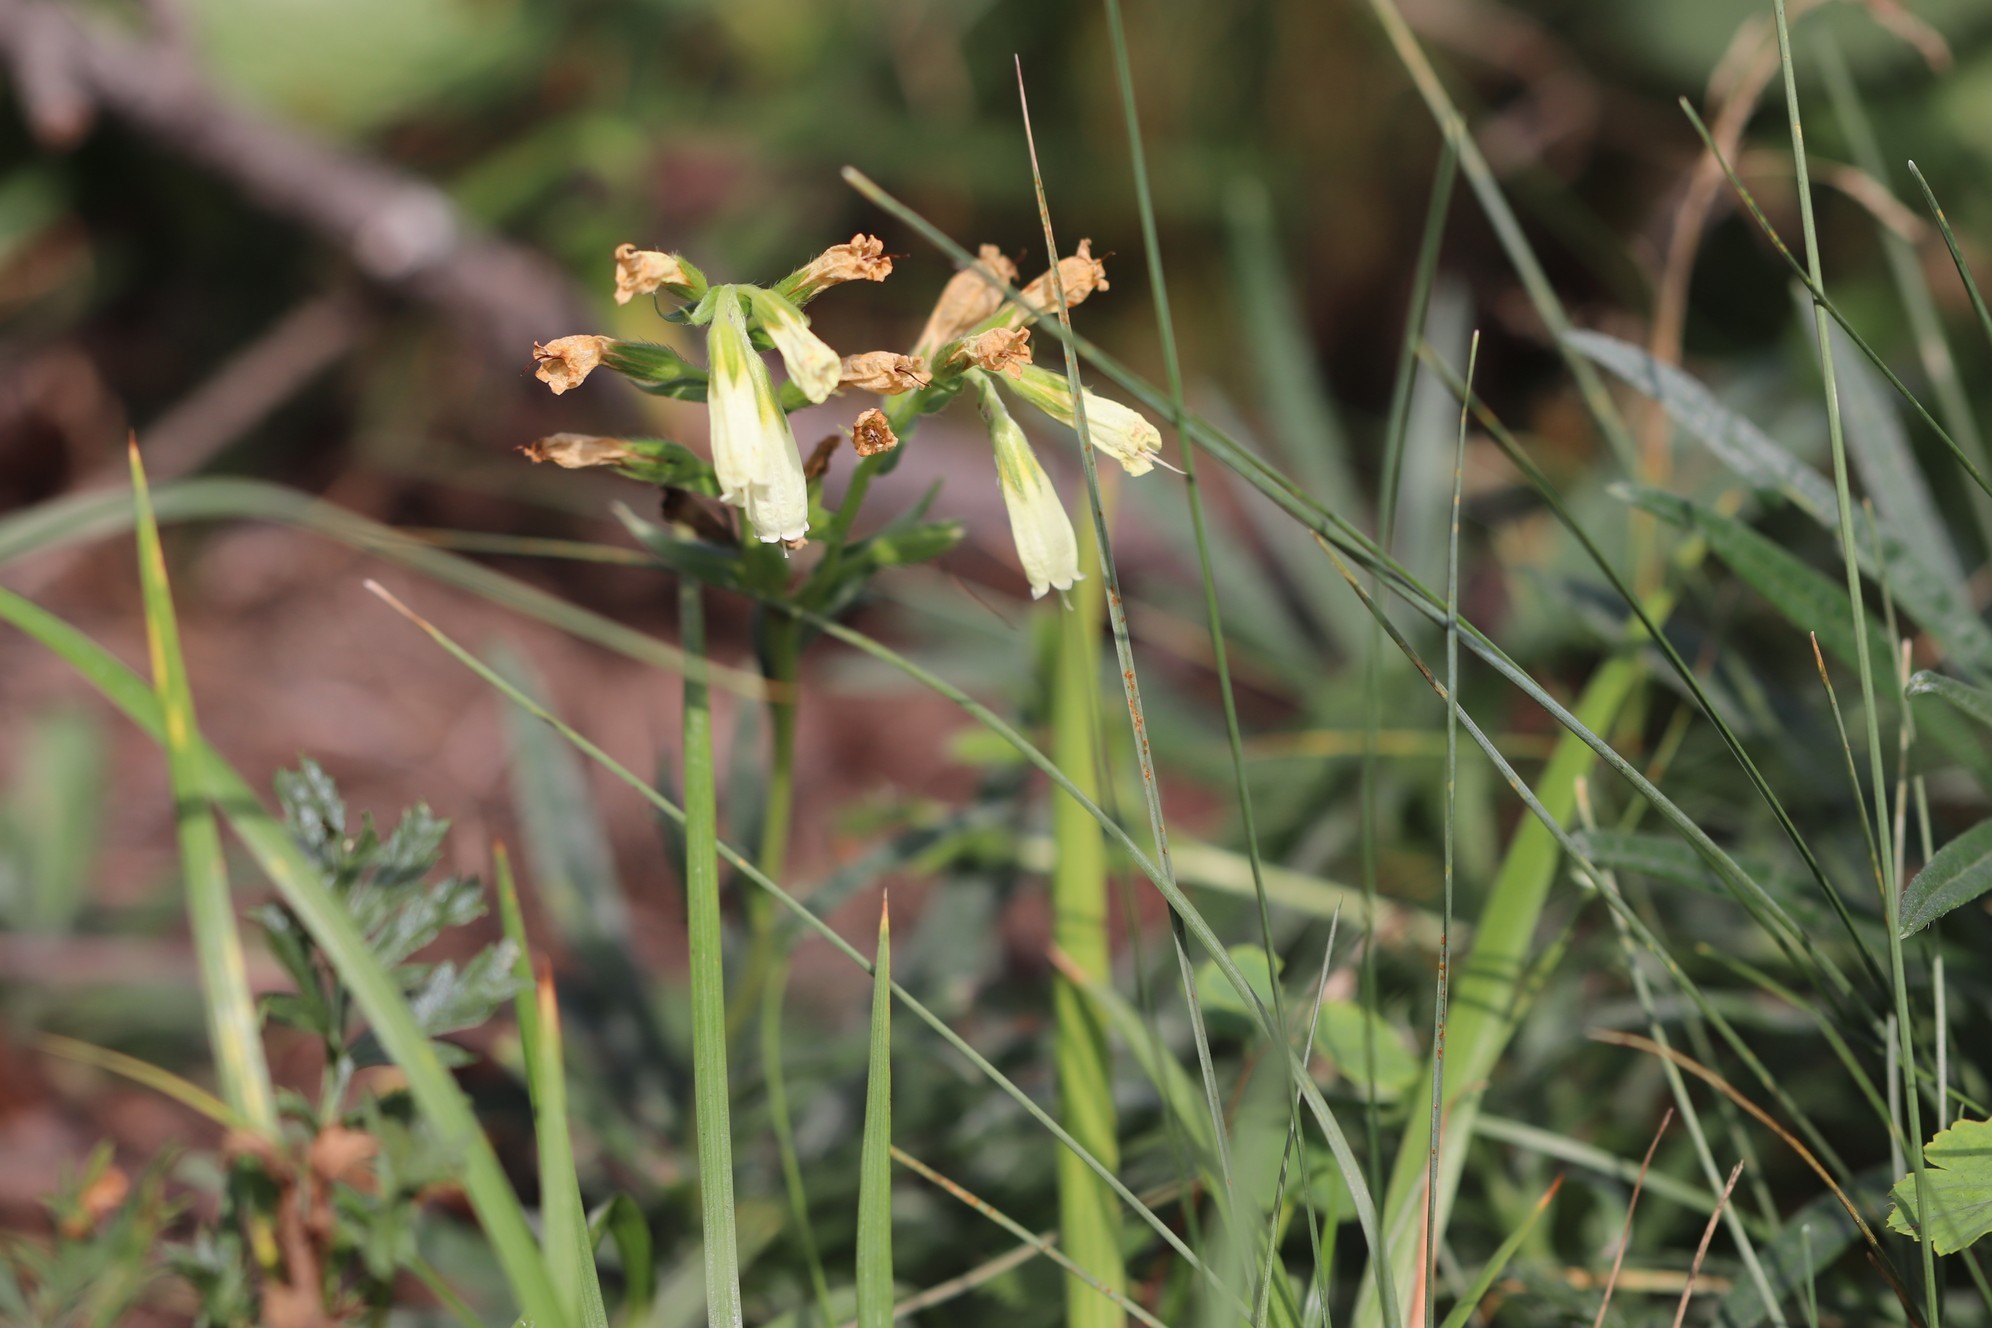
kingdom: Plantae
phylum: Tracheophyta
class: Magnoliopsida
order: Boraginales
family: Boraginaceae
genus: Onosma
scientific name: Onosma simplicissima
